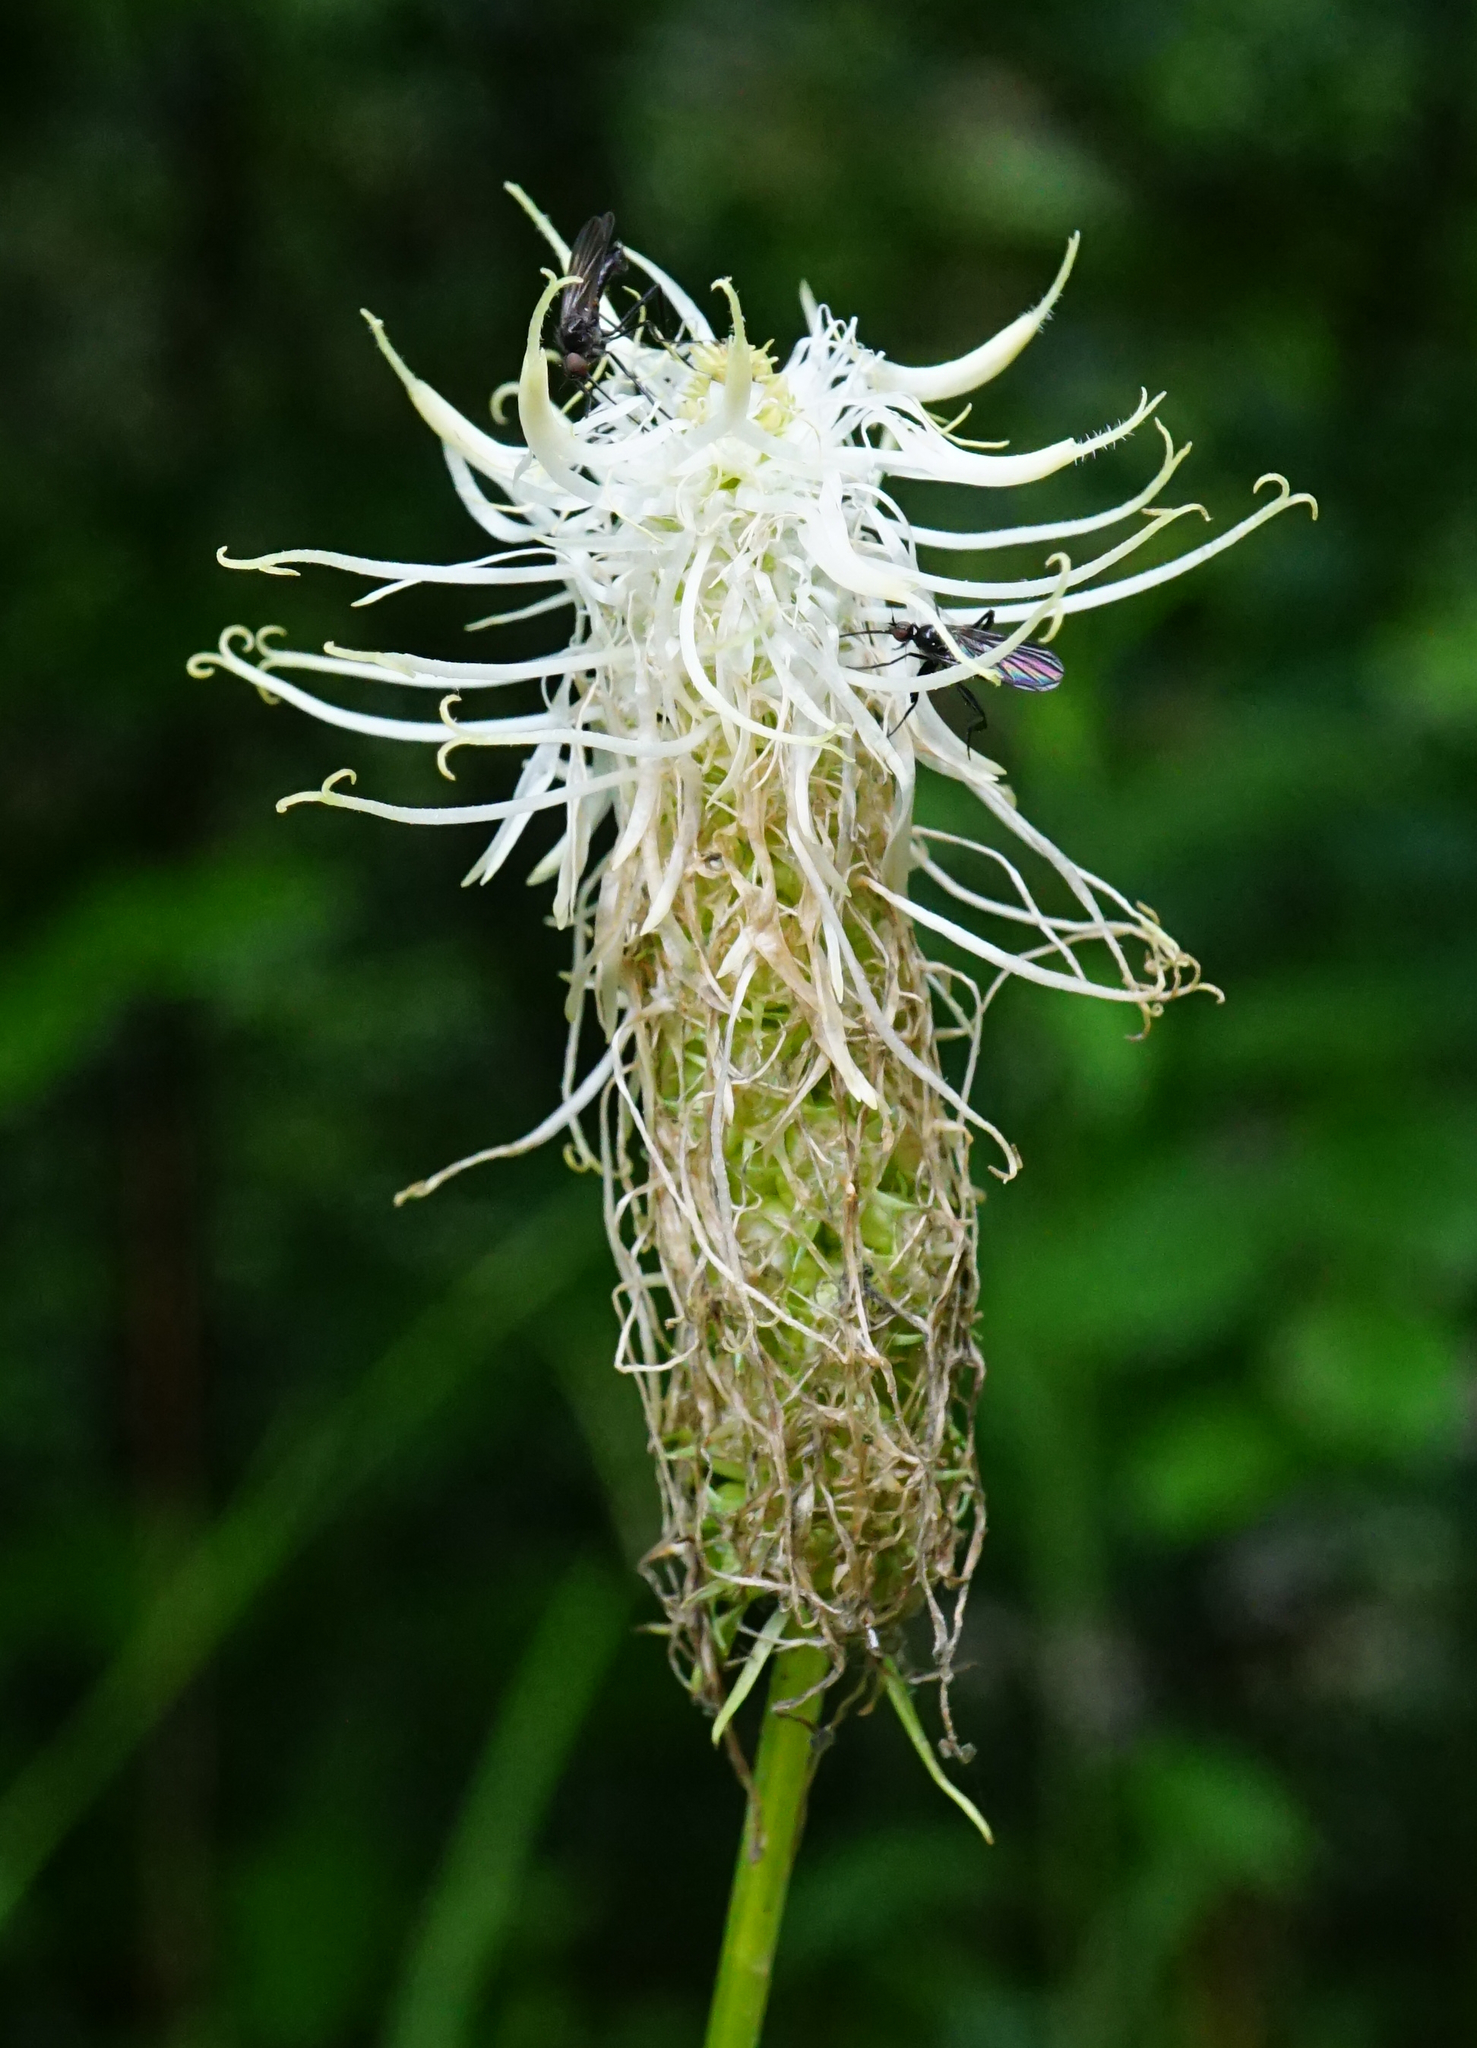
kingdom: Plantae
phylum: Tracheophyta
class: Magnoliopsida
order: Asterales
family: Campanulaceae
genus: Phyteuma
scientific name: Phyteuma spicatum
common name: Spiked rampion
